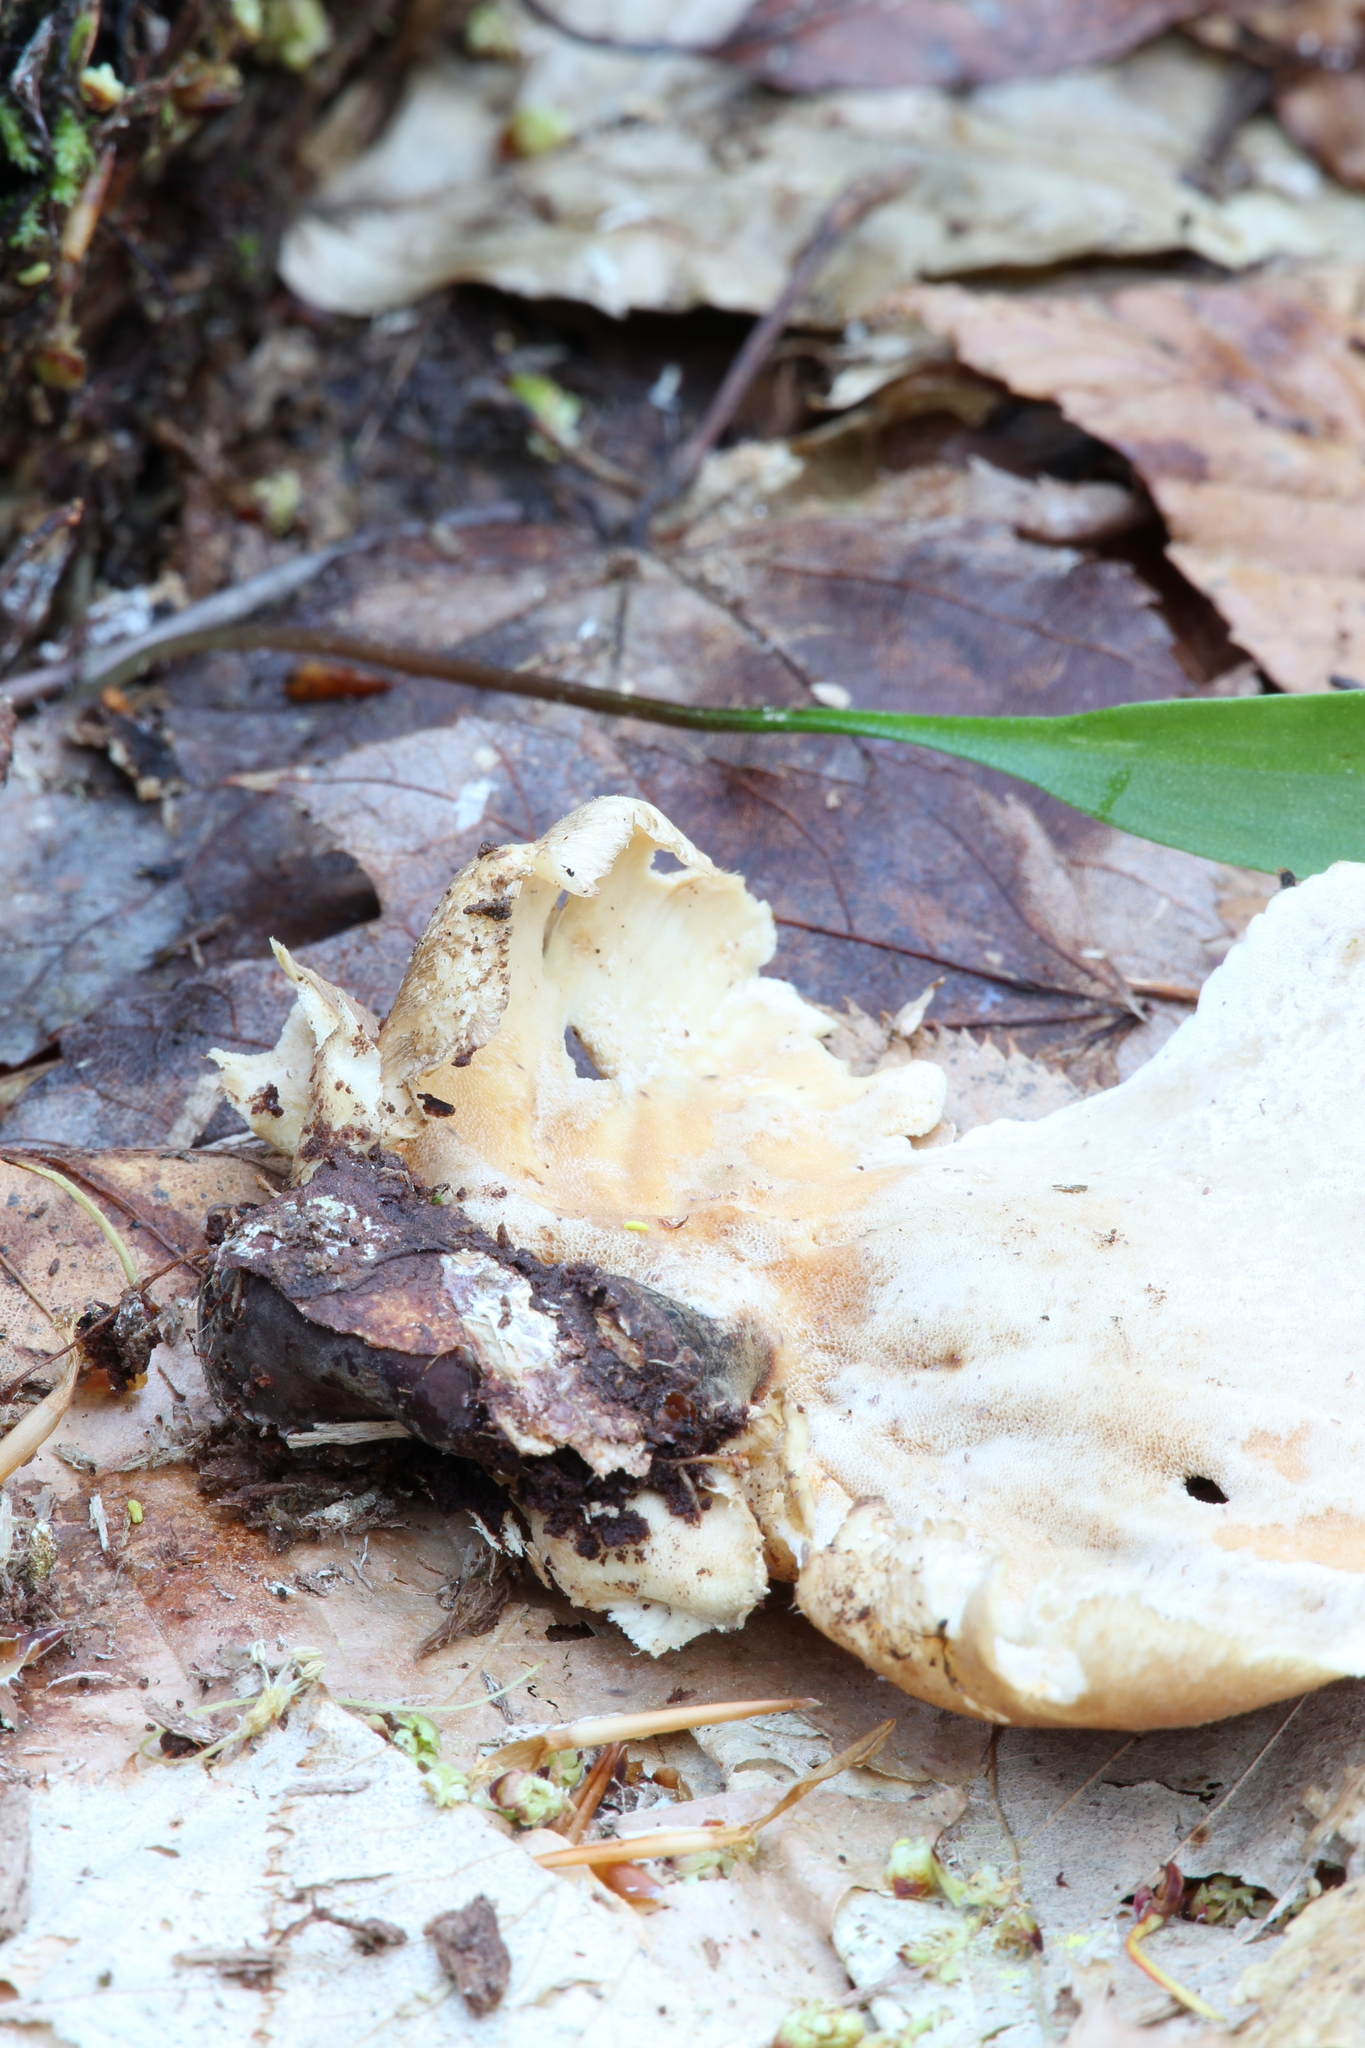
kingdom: Fungi
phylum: Basidiomycota
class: Agaricomycetes
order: Polyporales
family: Polyporaceae
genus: Cerioporus
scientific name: Cerioporus varius
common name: Elegant polypore
